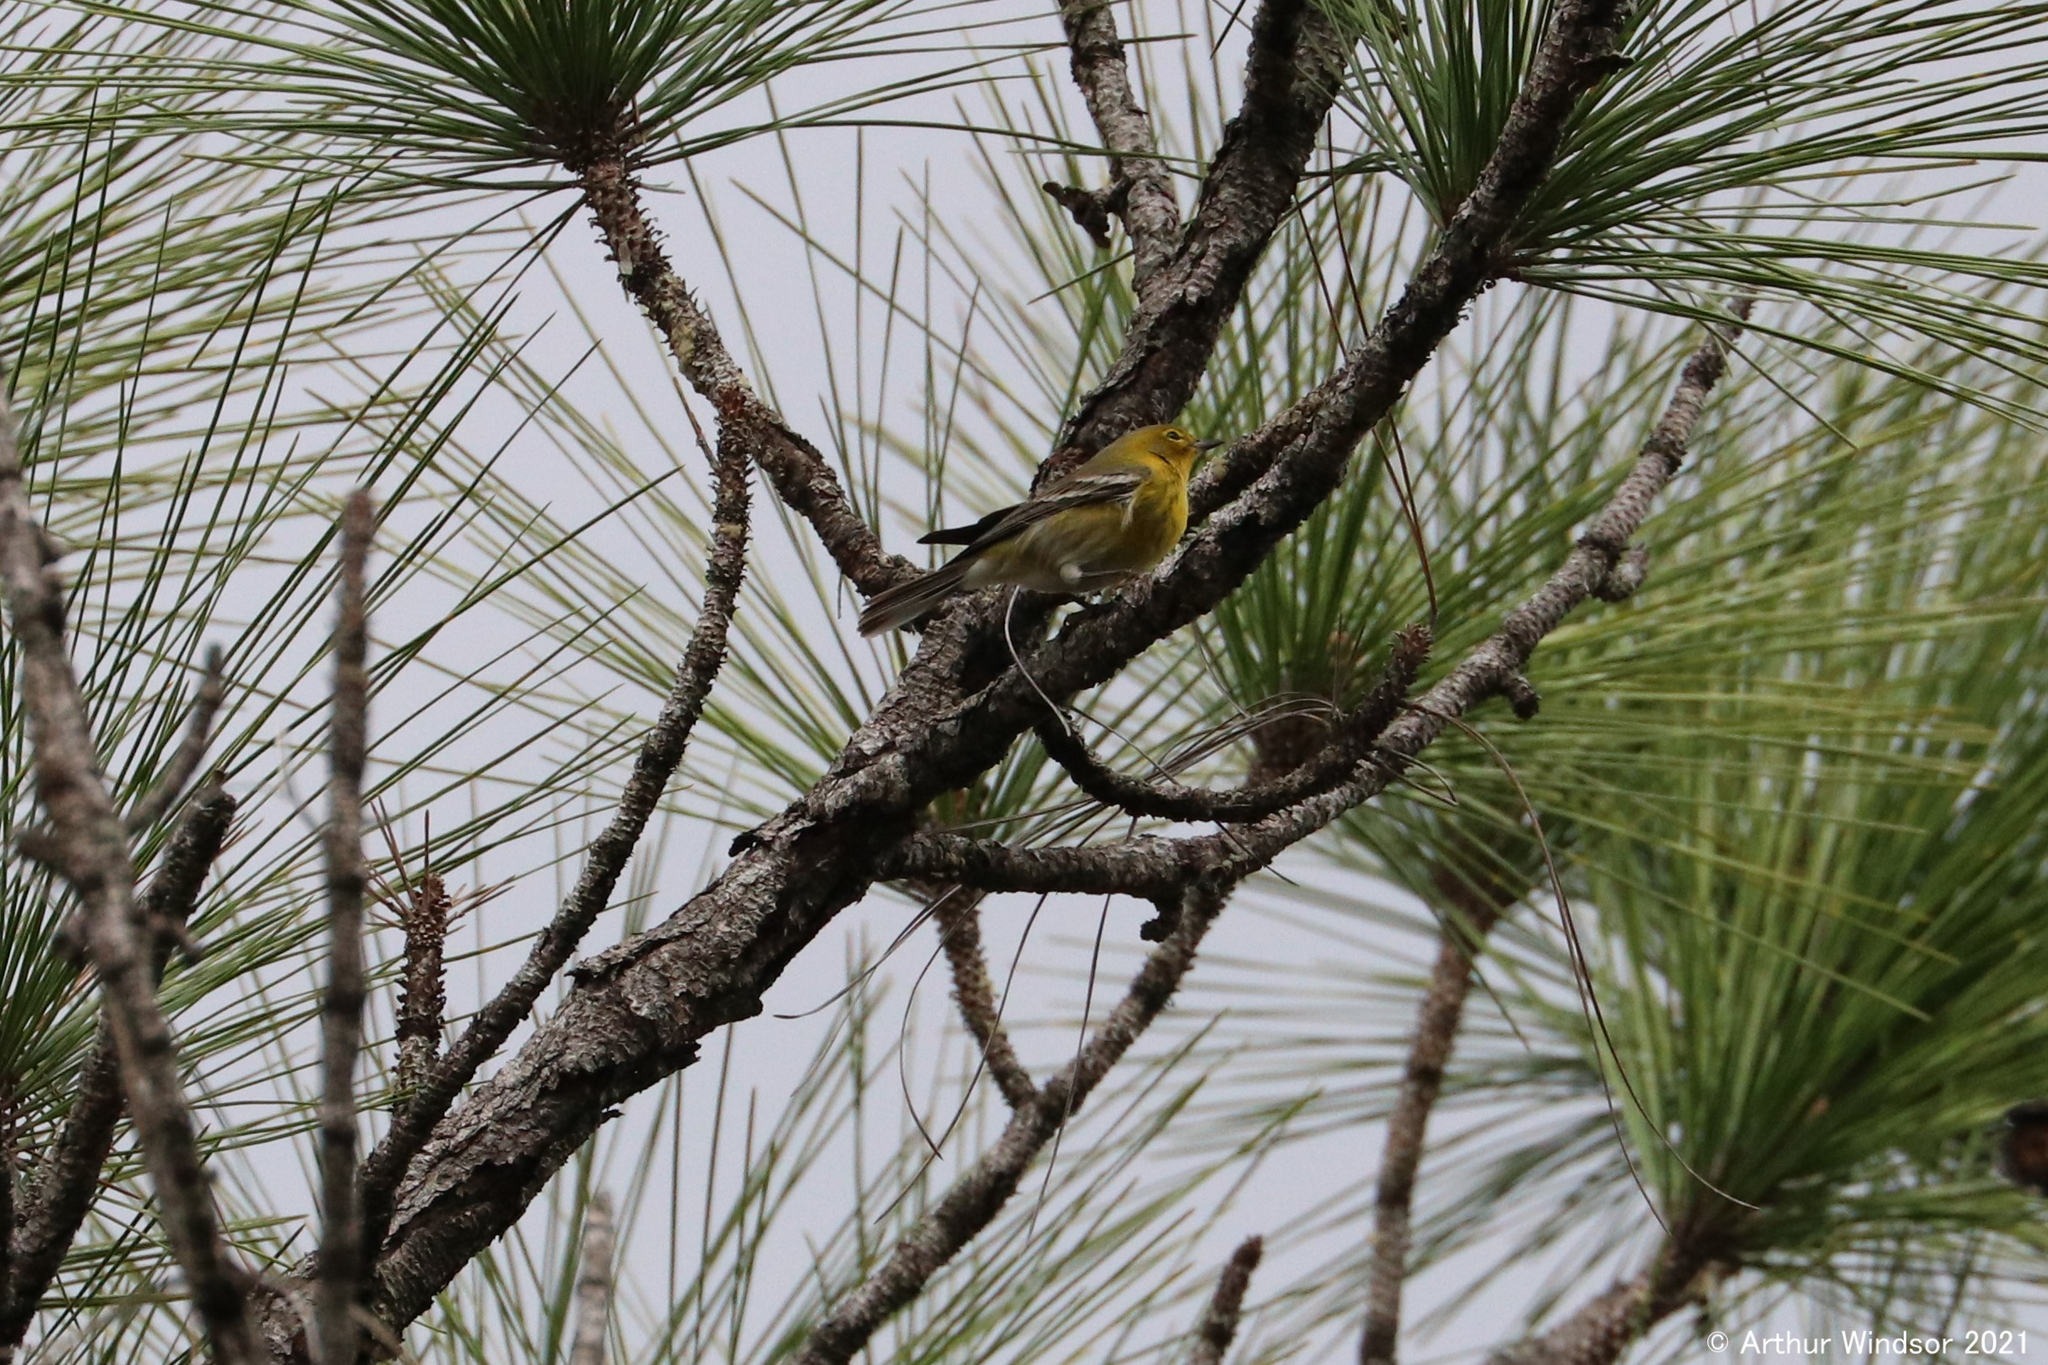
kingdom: Animalia
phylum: Chordata
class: Aves
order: Passeriformes
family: Parulidae
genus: Setophaga
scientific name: Setophaga pinus
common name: Pine warbler
